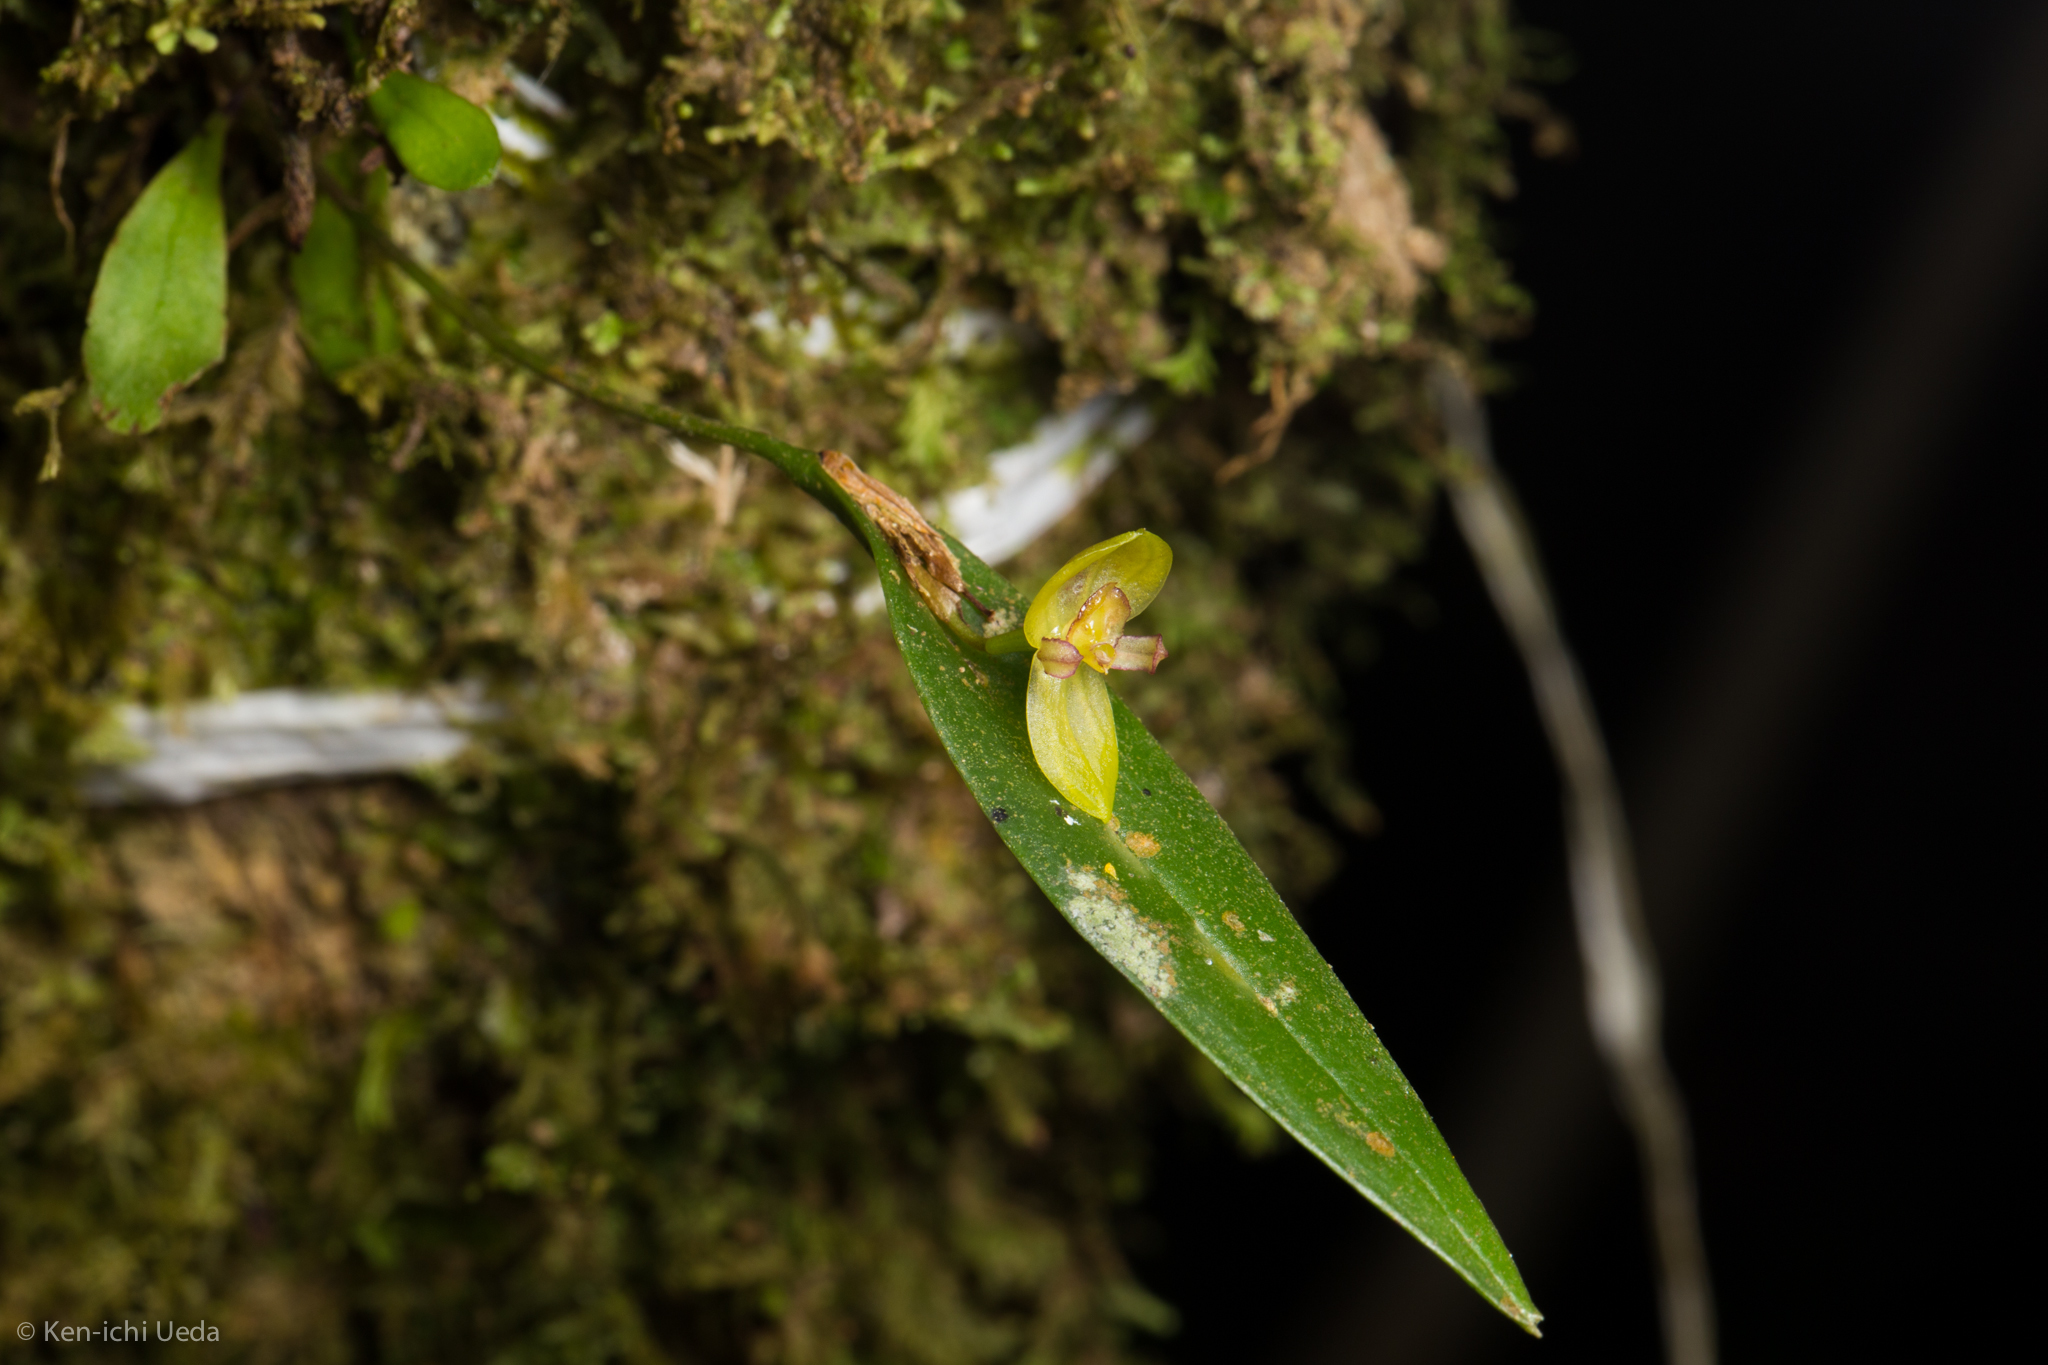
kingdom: Plantae
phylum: Tracheophyta
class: Liliopsida
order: Asparagales
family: Orchidaceae
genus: Pleurothallis
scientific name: Pleurothallis dorotheae
